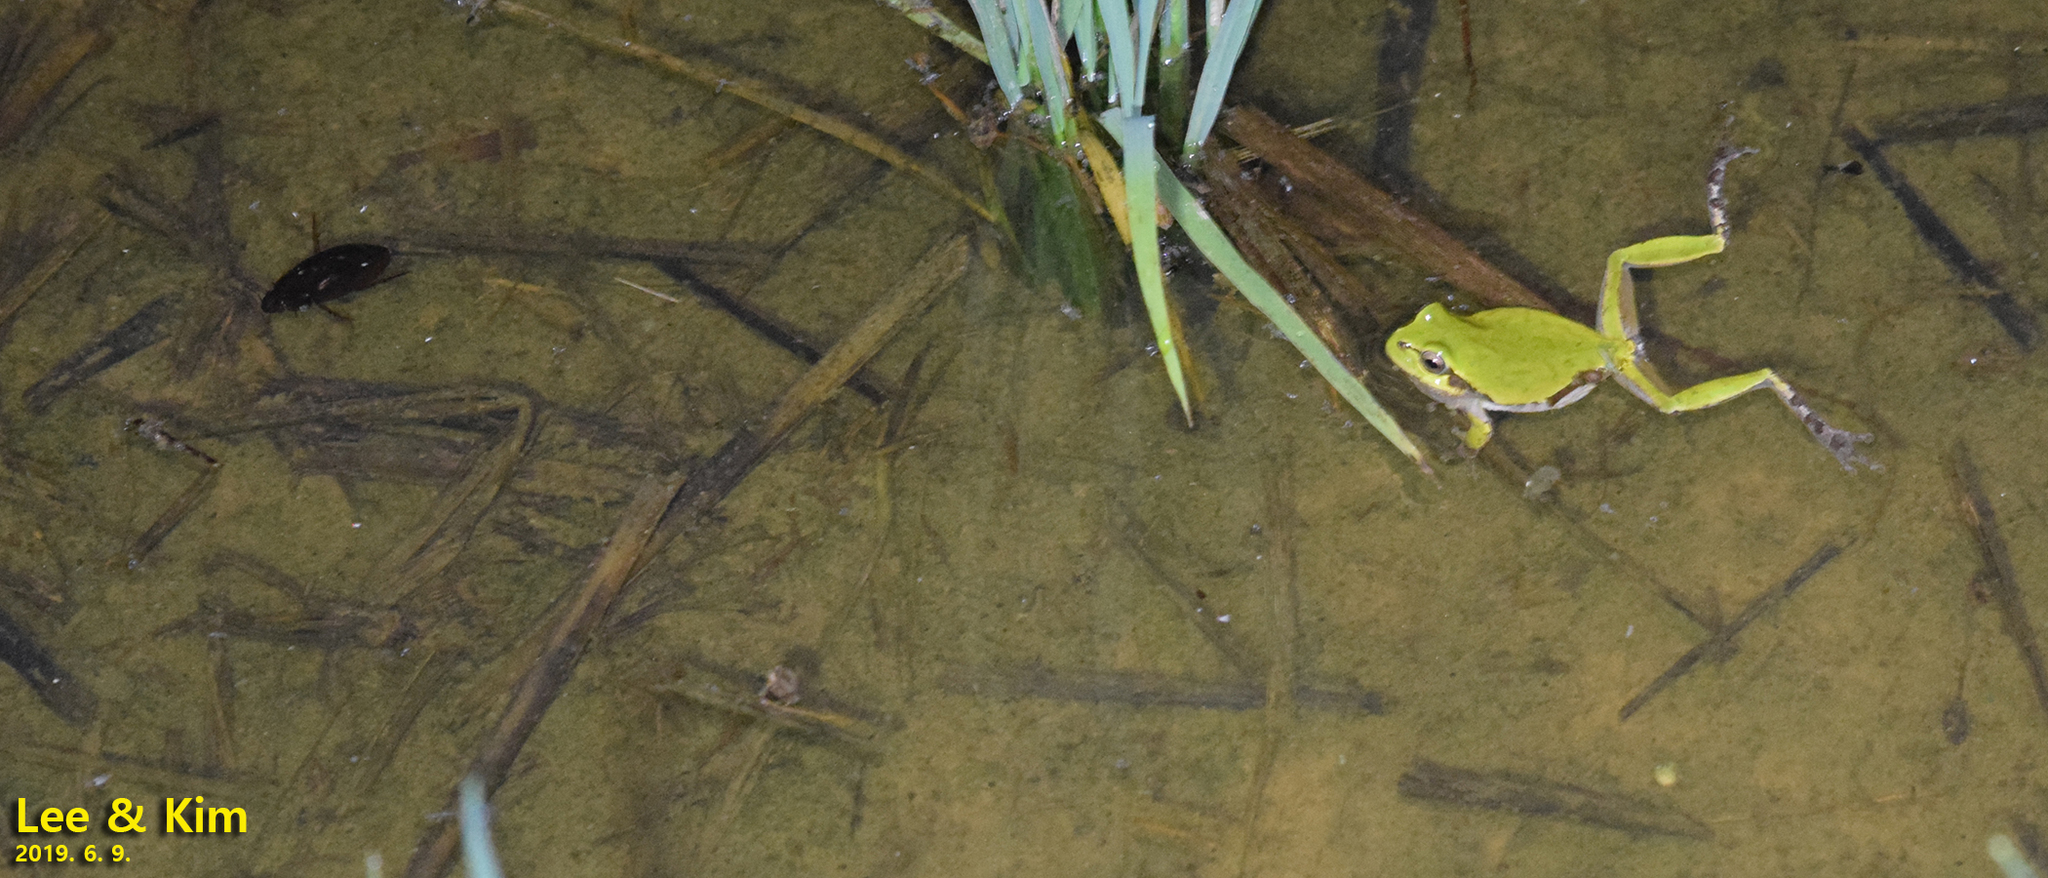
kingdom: Animalia
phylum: Chordata
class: Amphibia
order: Anura
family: Hylidae
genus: Dryophytes
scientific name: Dryophytes japonicus
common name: Japanese treefrog
